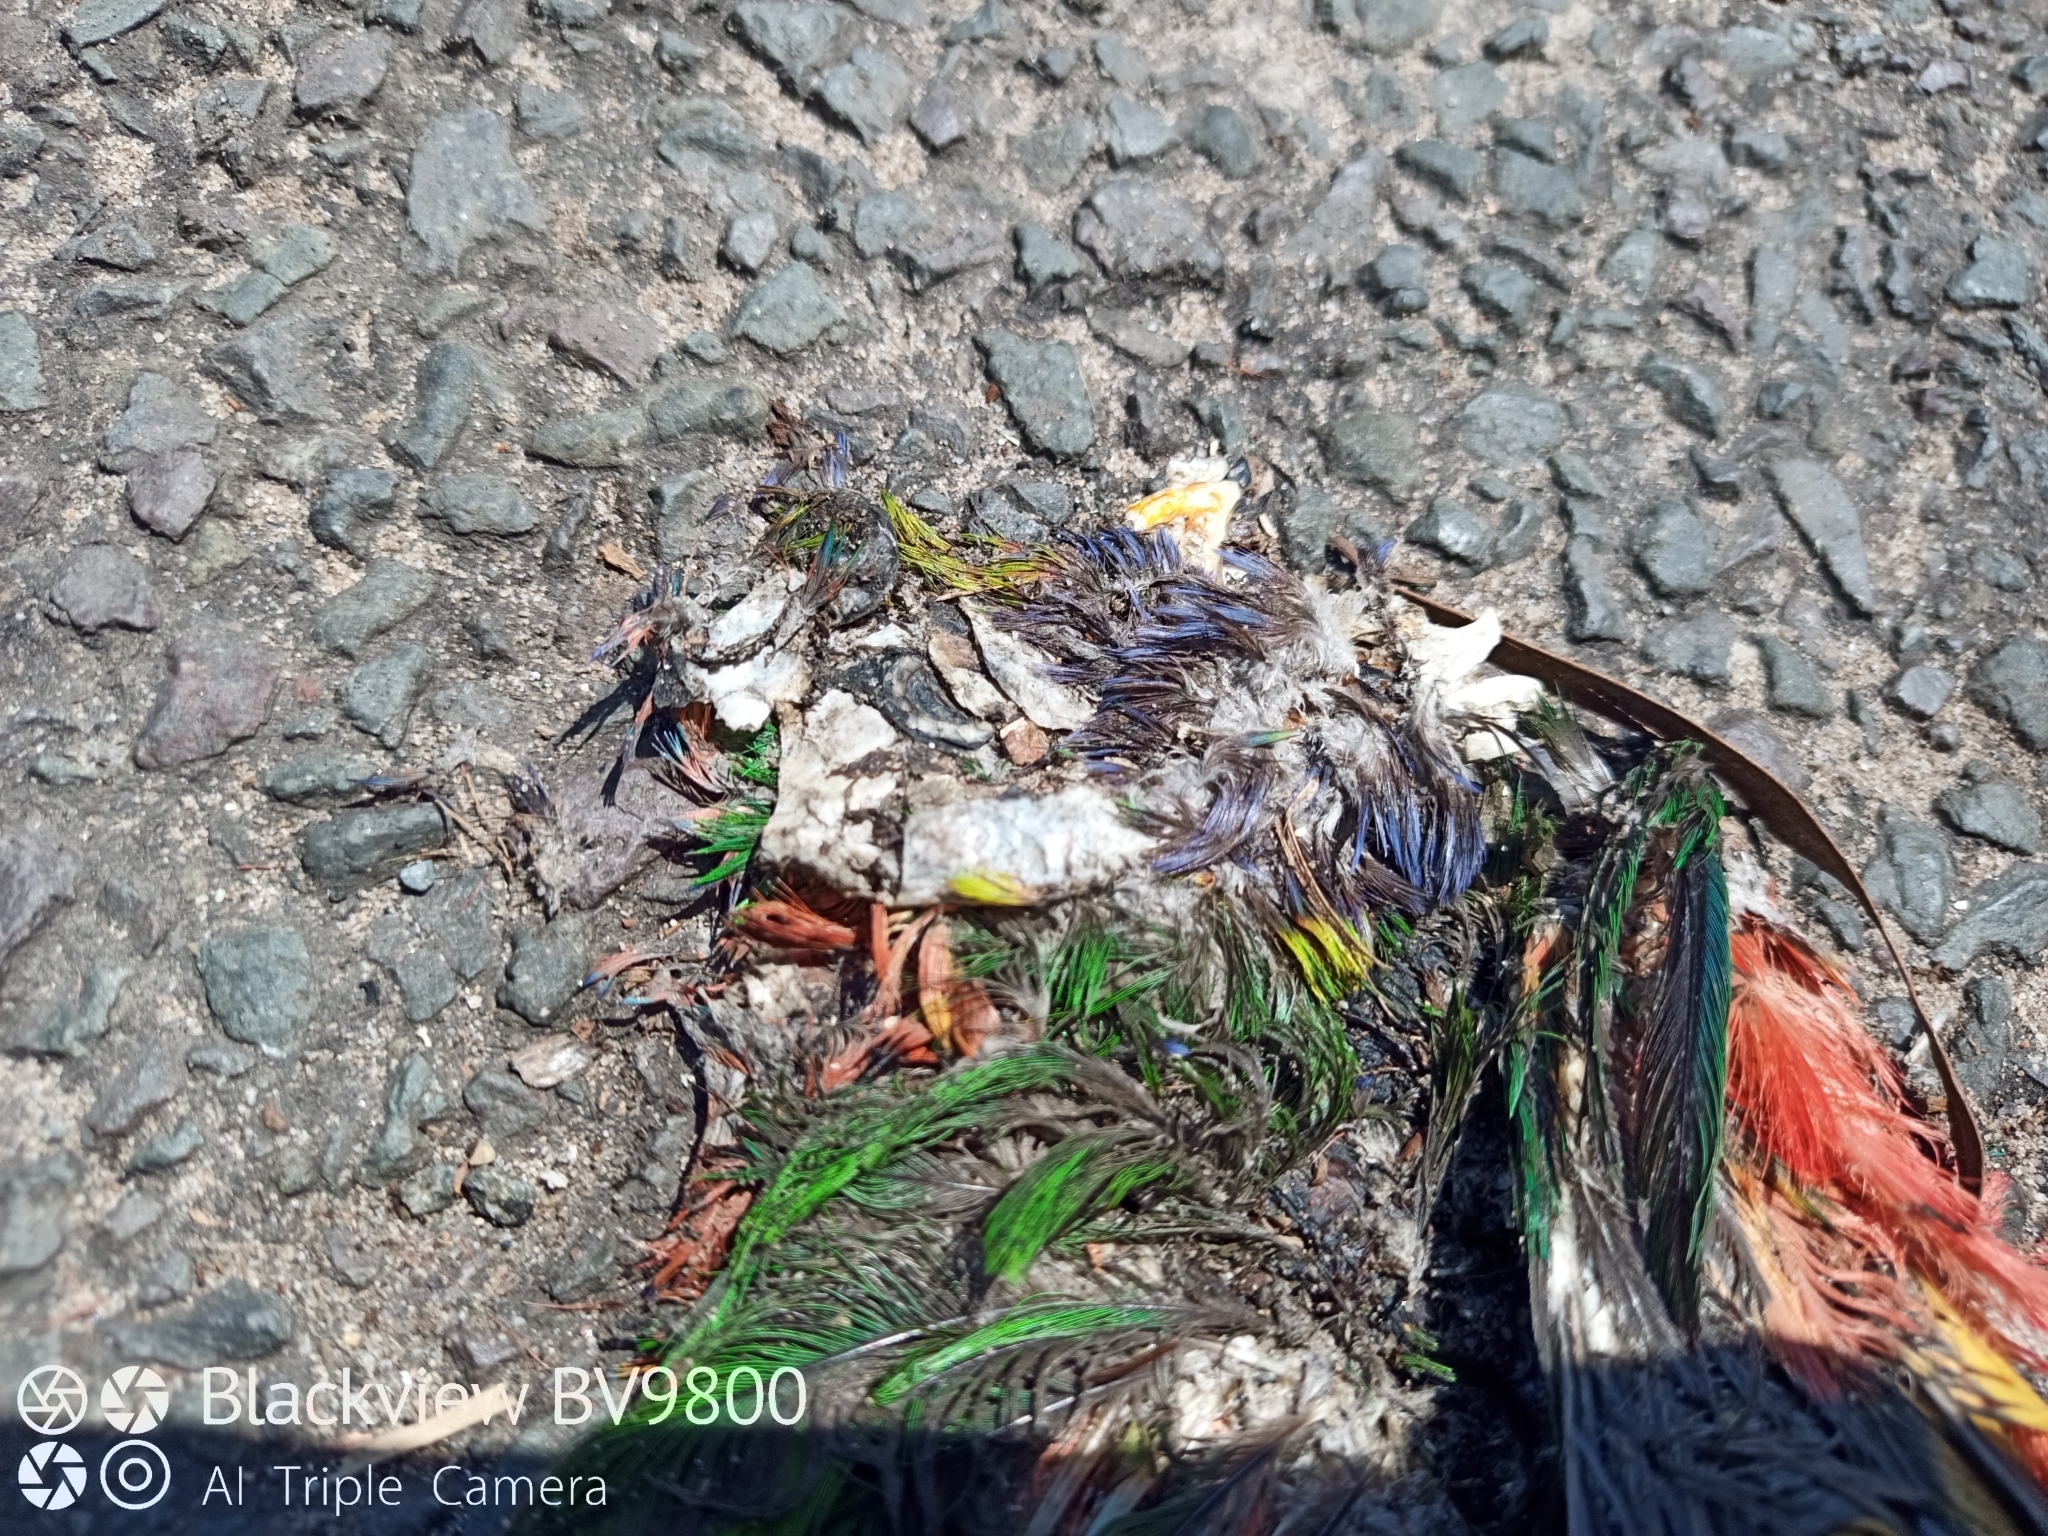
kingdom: Animalia
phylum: Chordata
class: Aves
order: Psittaciformes
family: Psittacidae
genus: Trichoglossus
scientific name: Trichoglossus haematodus
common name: Coconut lorikeet
